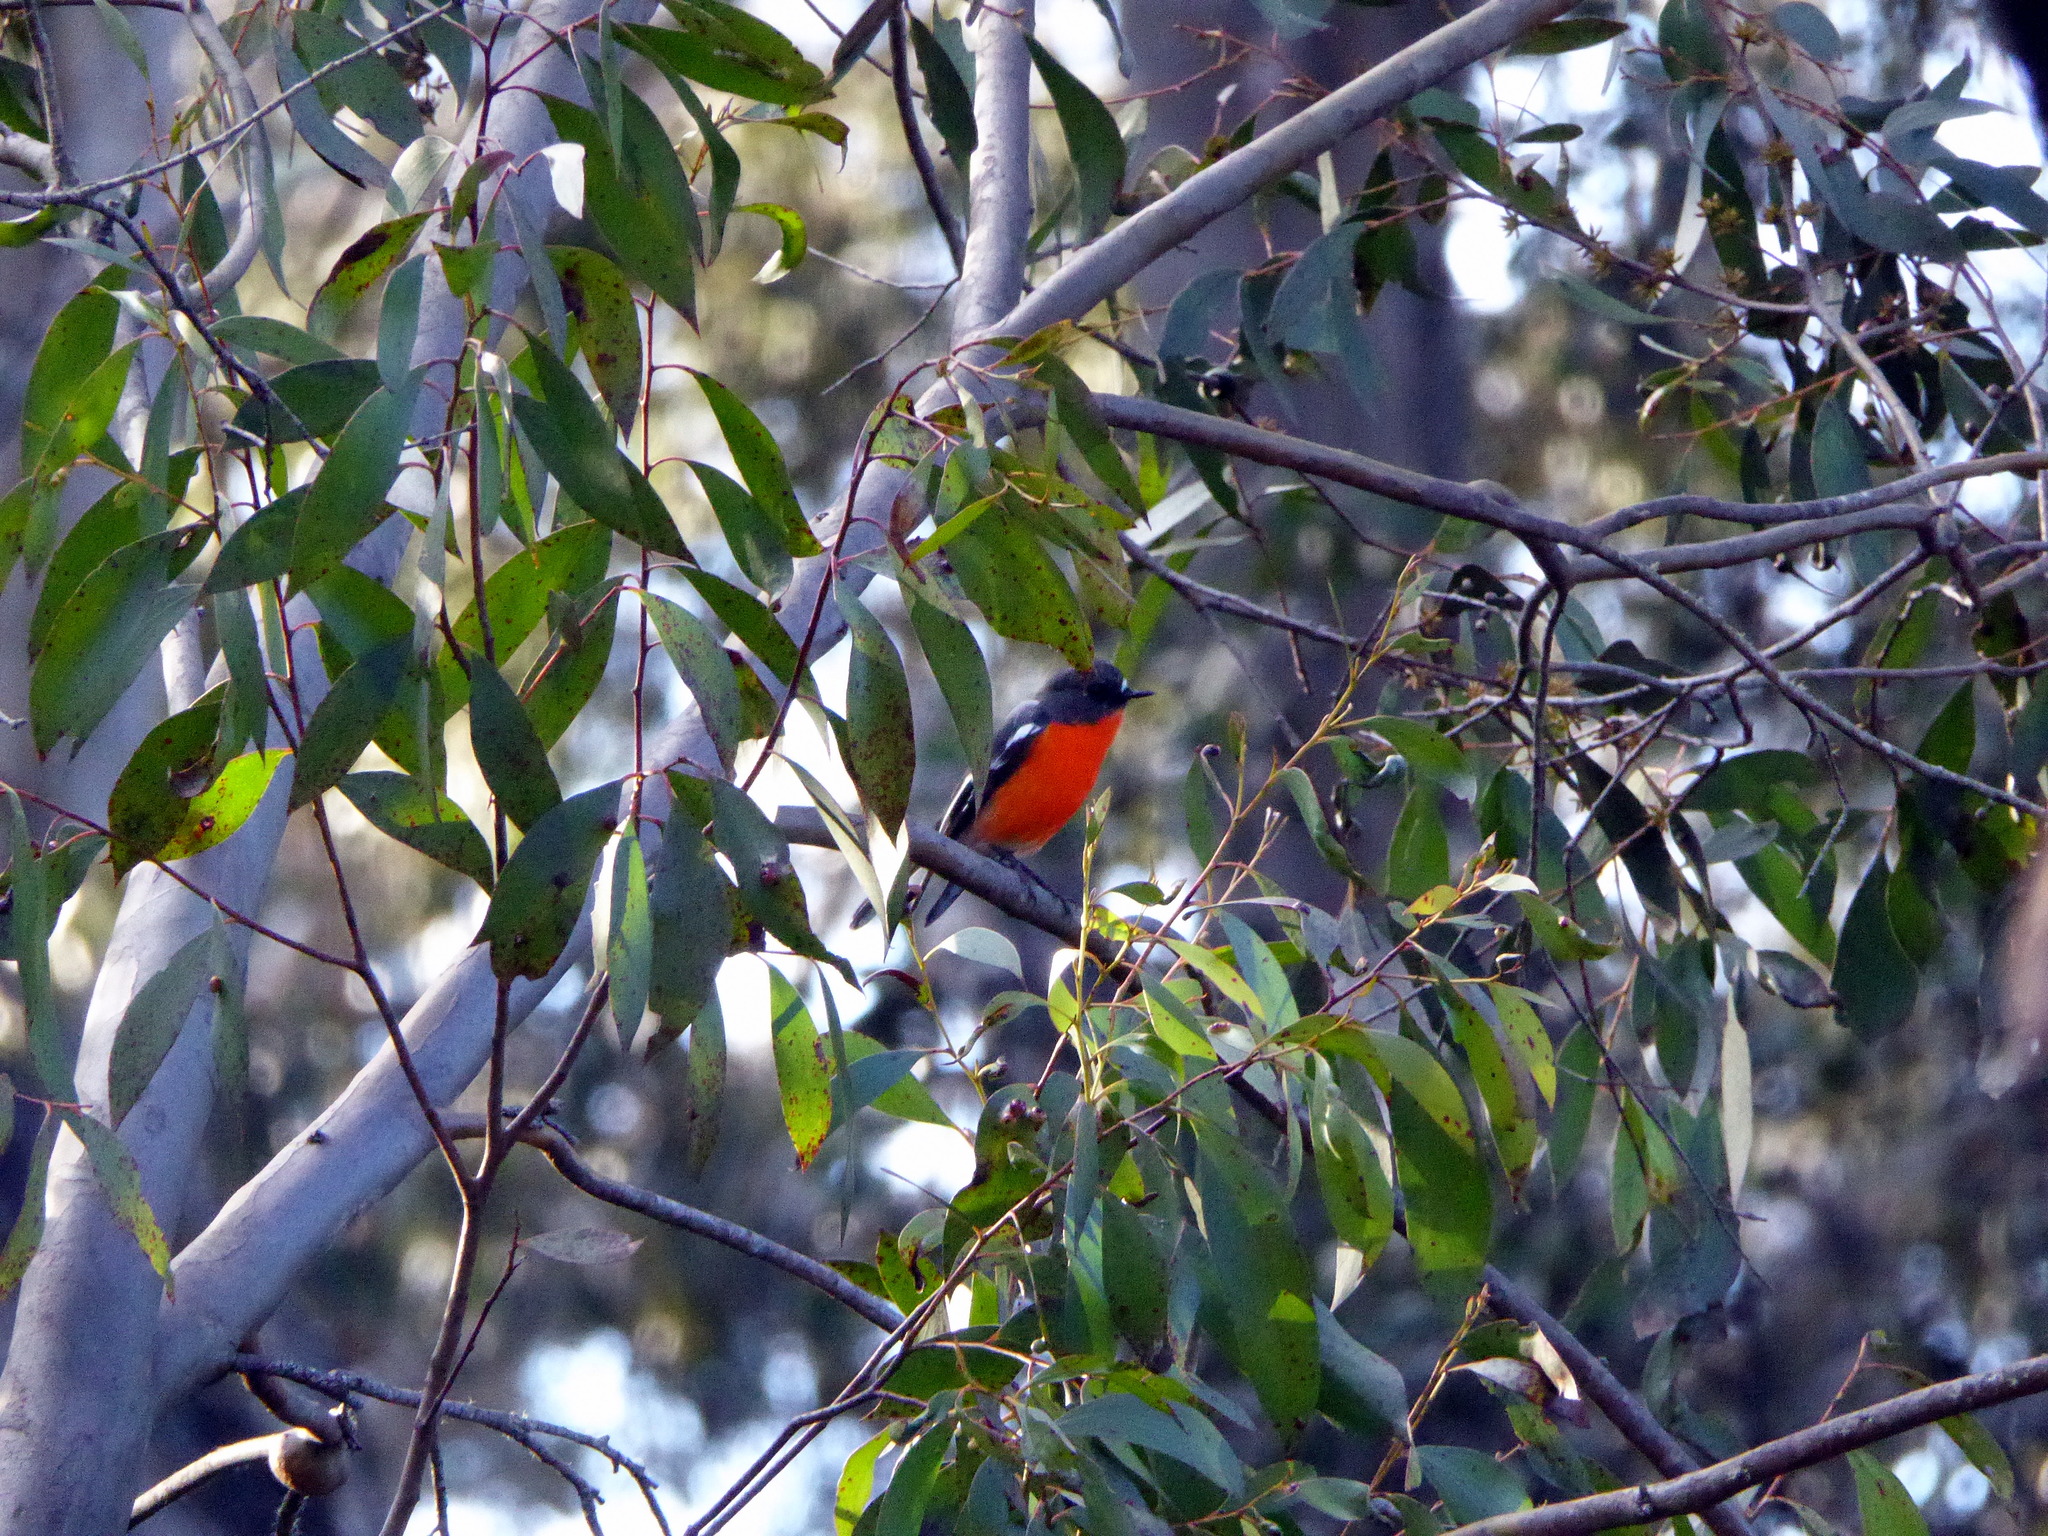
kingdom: Animalia
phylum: Chordata
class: Aves
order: Passeriformes
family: Petroicidae
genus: Petroica
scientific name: Petroica phoenicea
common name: Flame robin
